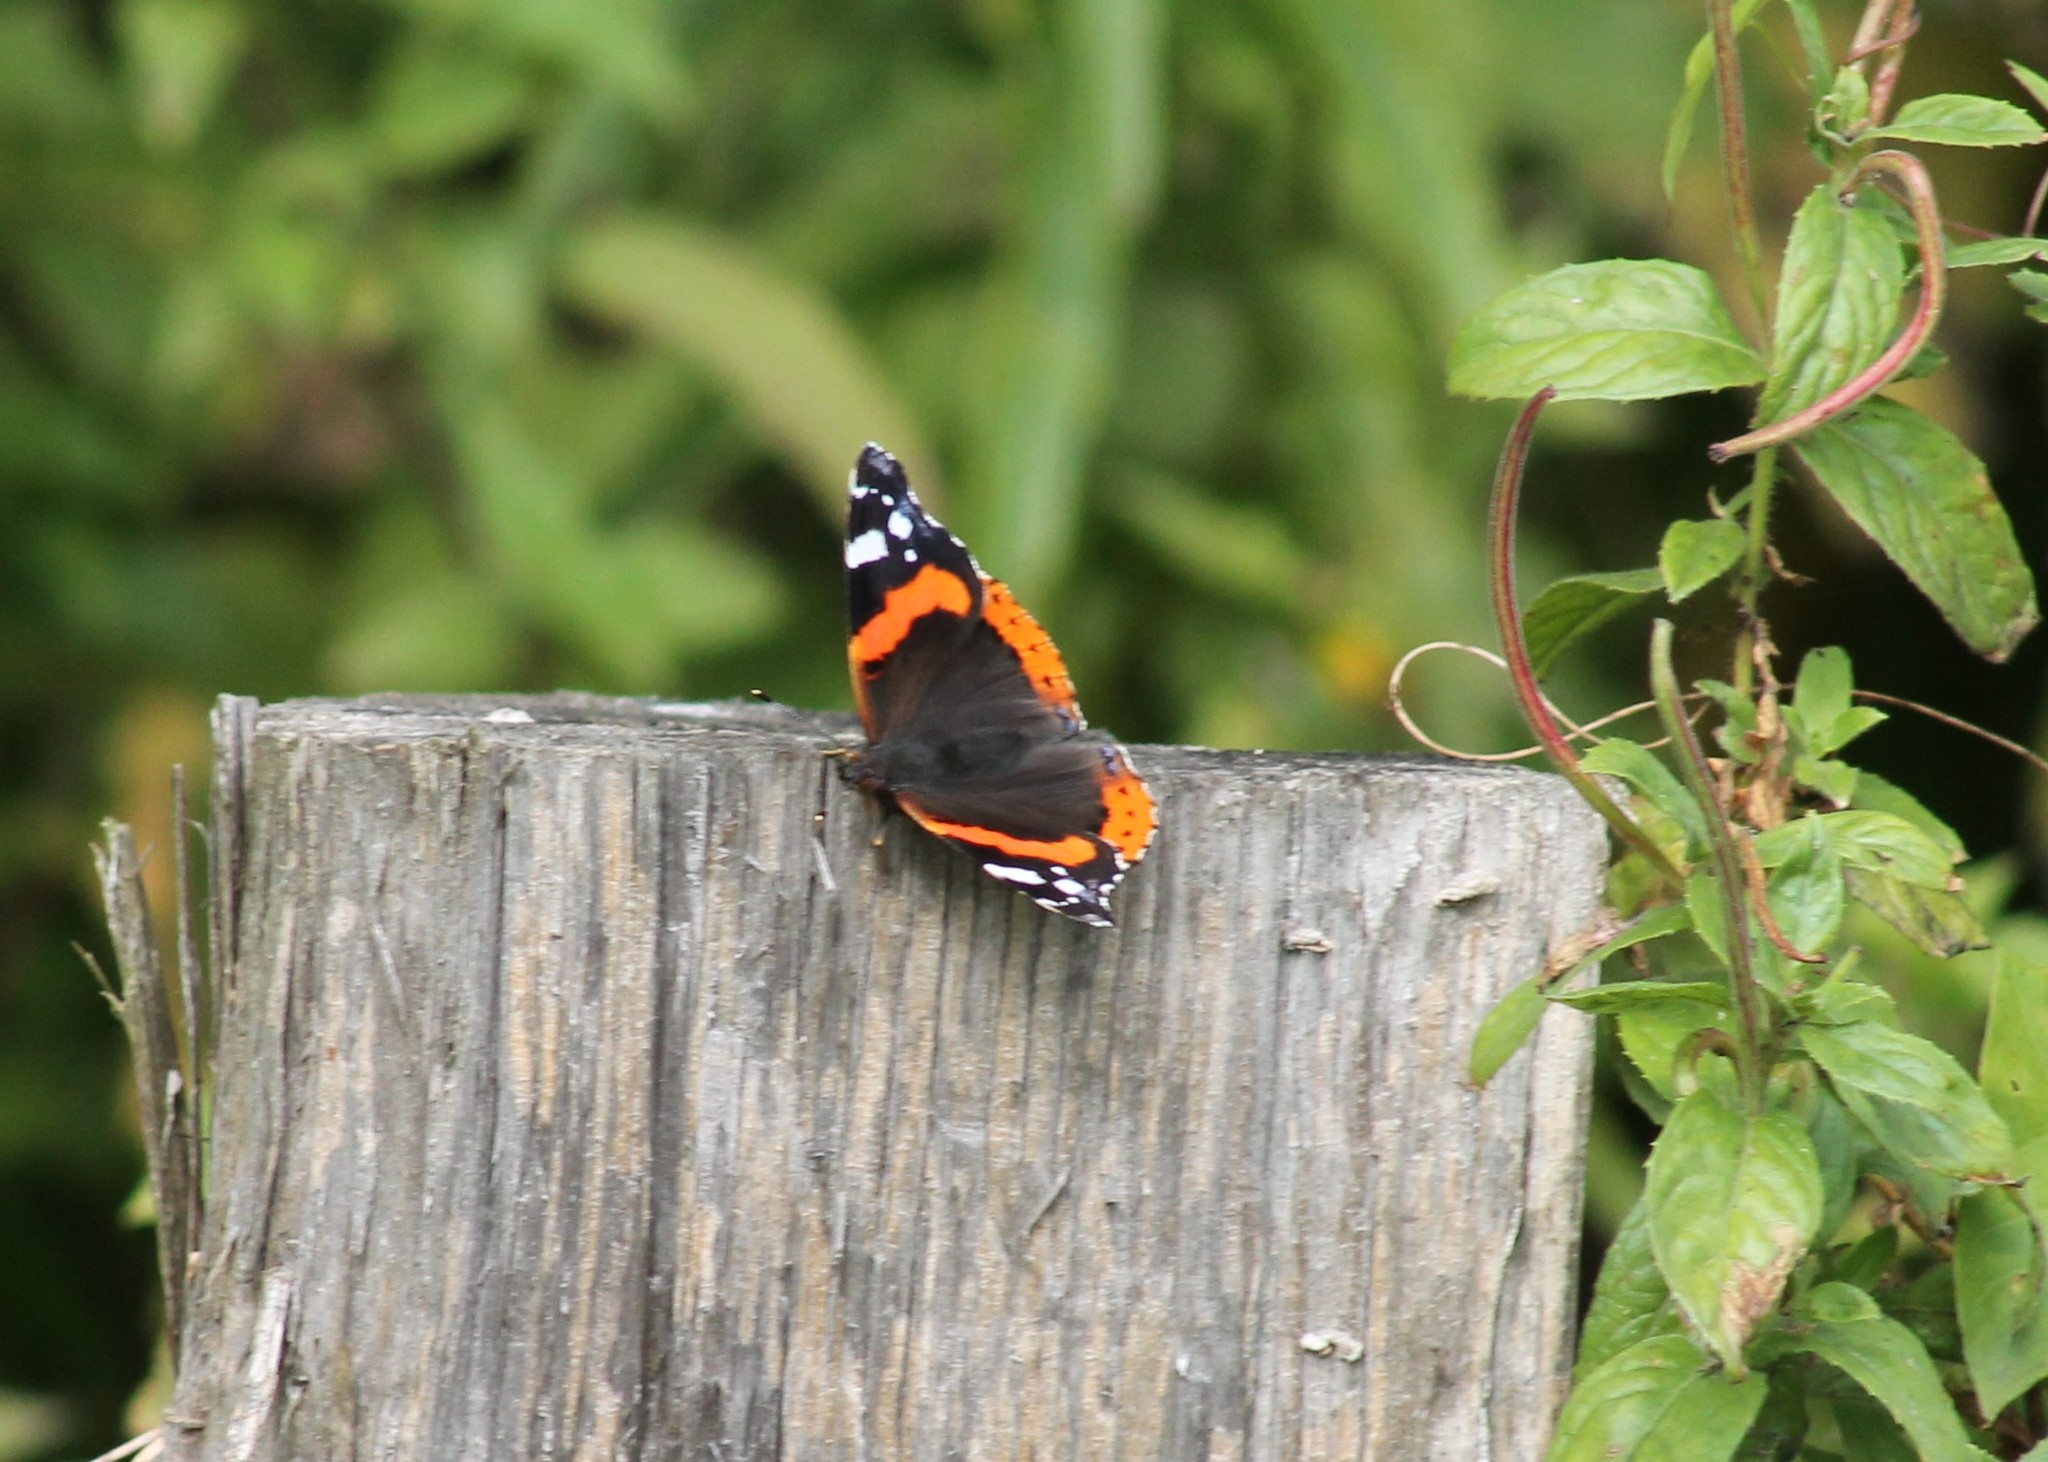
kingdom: Animalia
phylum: Arthropoda
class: Insecta
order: Lepidoptera
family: Nymphalidae
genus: Vanessa
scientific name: Vanessa atalanta
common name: Red admiral
